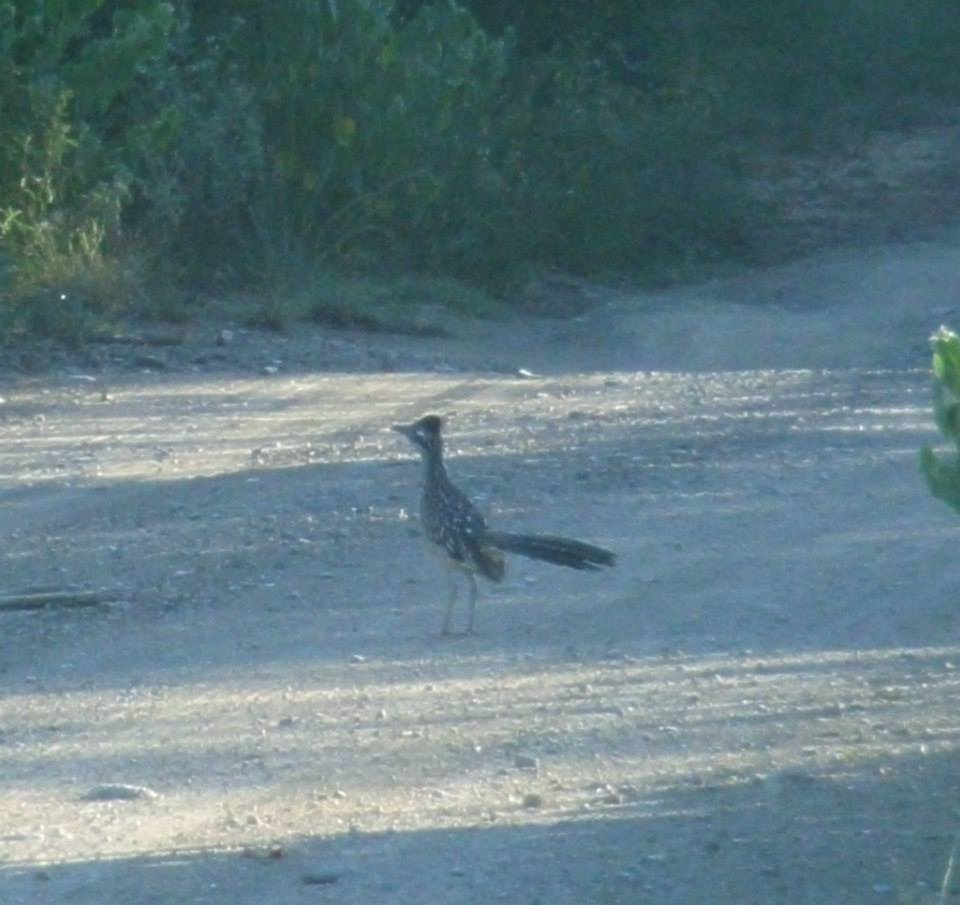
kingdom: Animalia
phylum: Chordata
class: Aves
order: Cuculiformes
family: Cuculidae
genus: Geococcyx
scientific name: Geococcyx californianus
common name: Greater roadrunner
